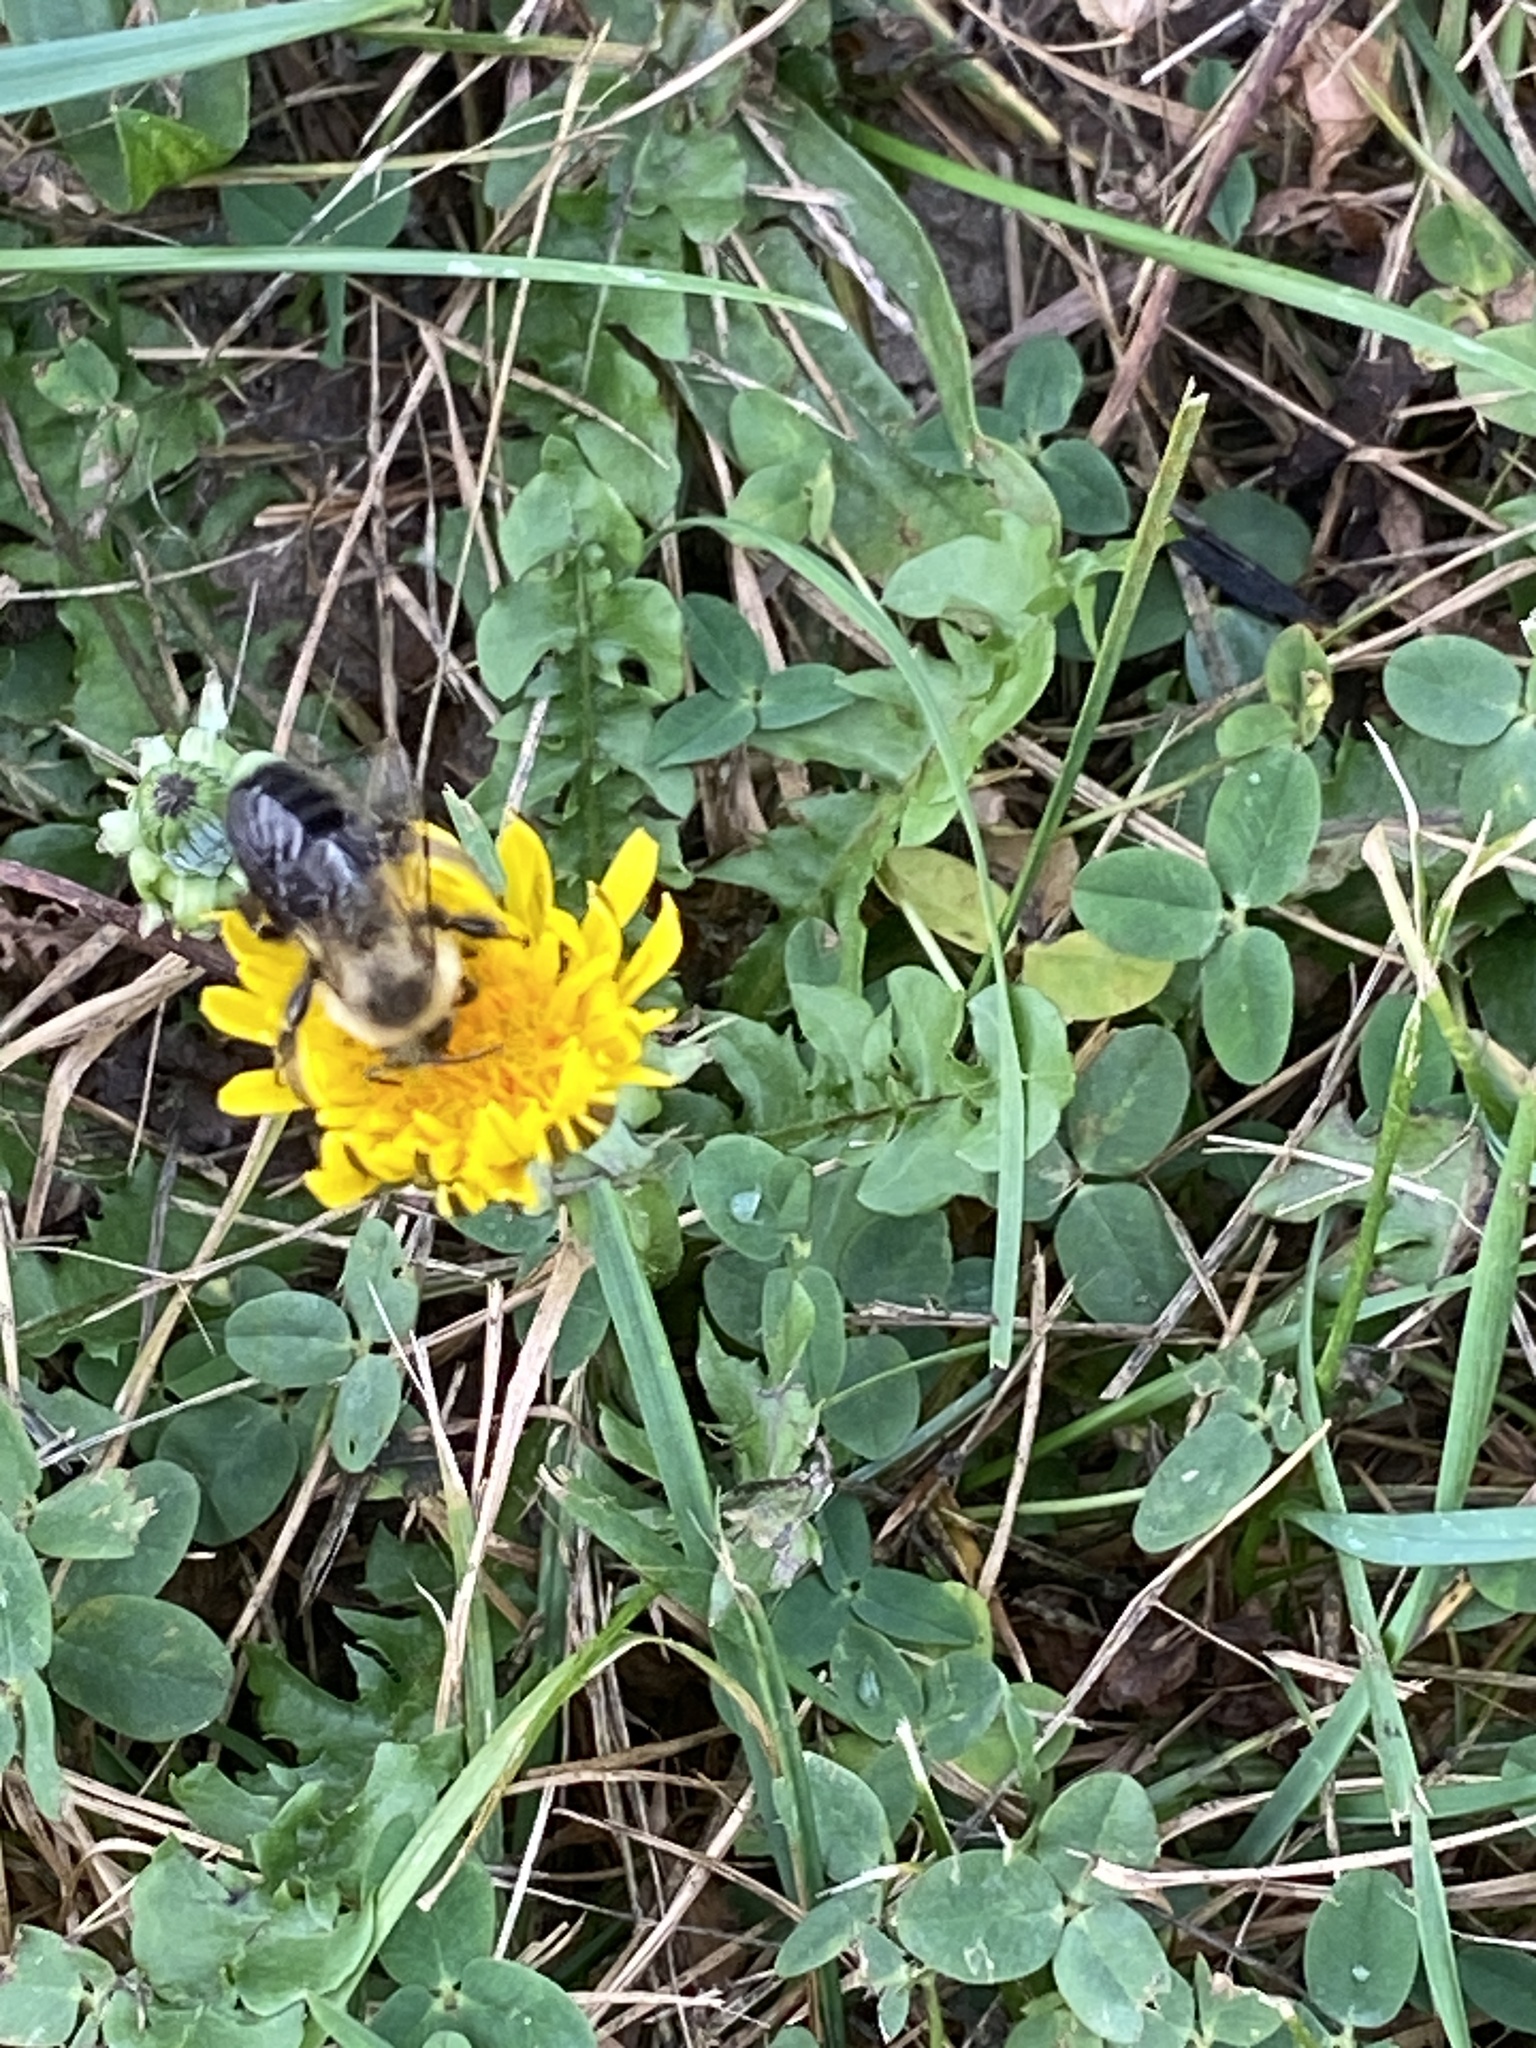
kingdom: Animalia
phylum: Arthropoda
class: Insecta
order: Hymenoptera
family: Apidae
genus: Bombus
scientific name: Bombus impatiens
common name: Common eastern bumble bee
